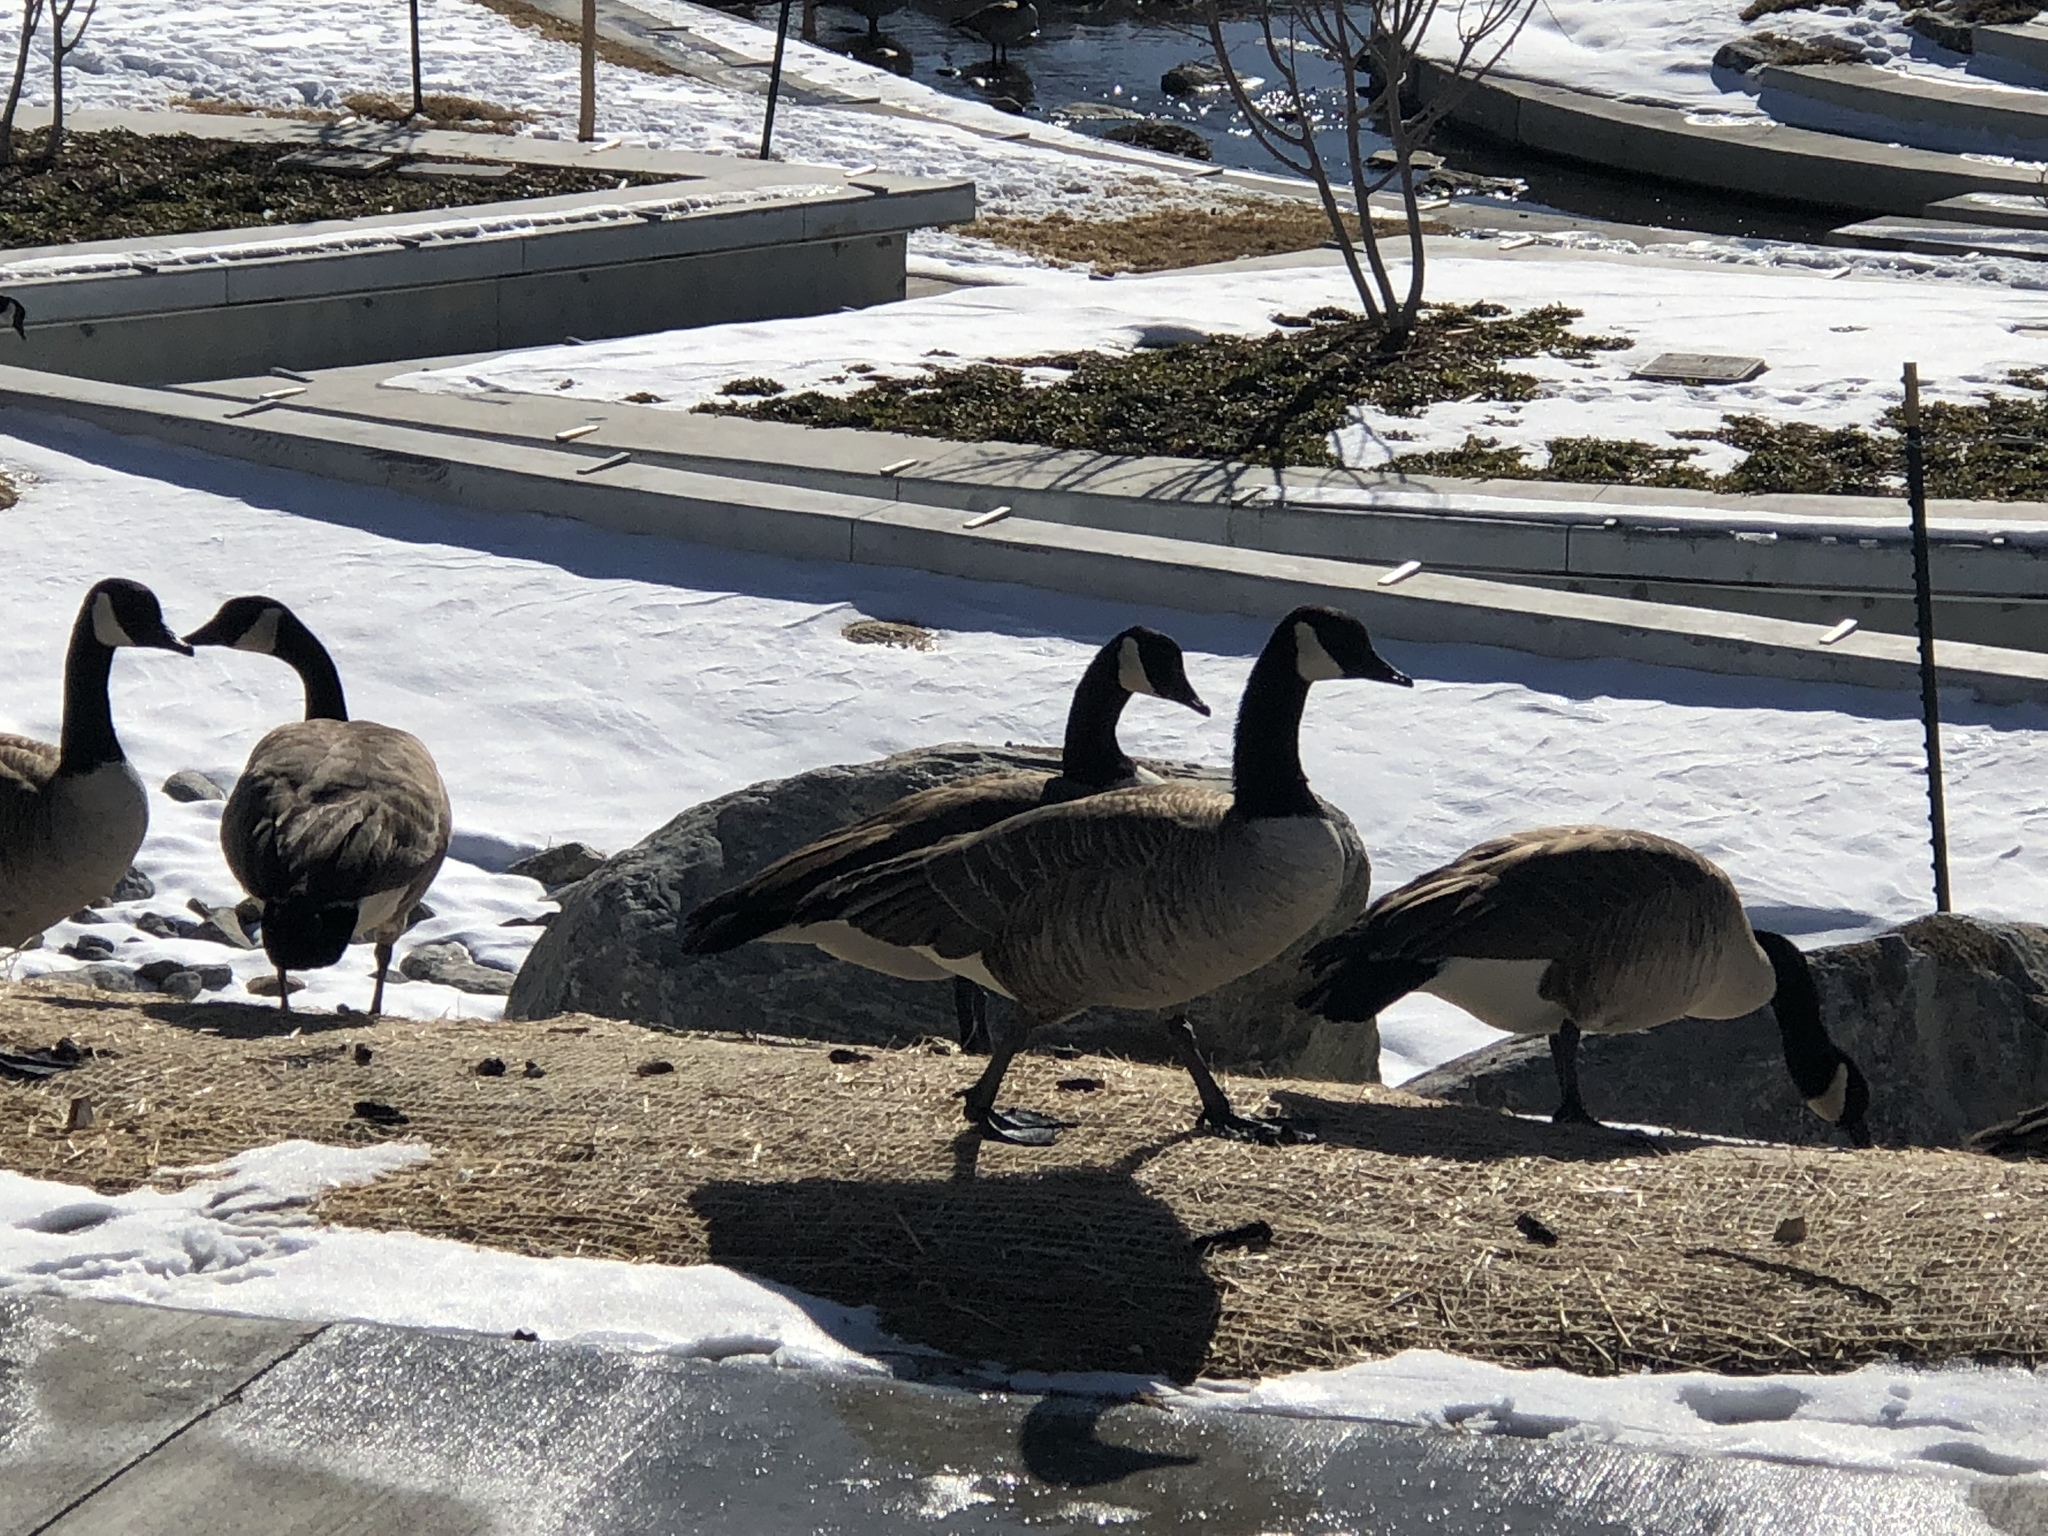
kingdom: Animalia
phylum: Chordata
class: Aves
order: Anseriformes
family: Anatidae
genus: Branta
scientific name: Branta canadensis
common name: Canada goose
